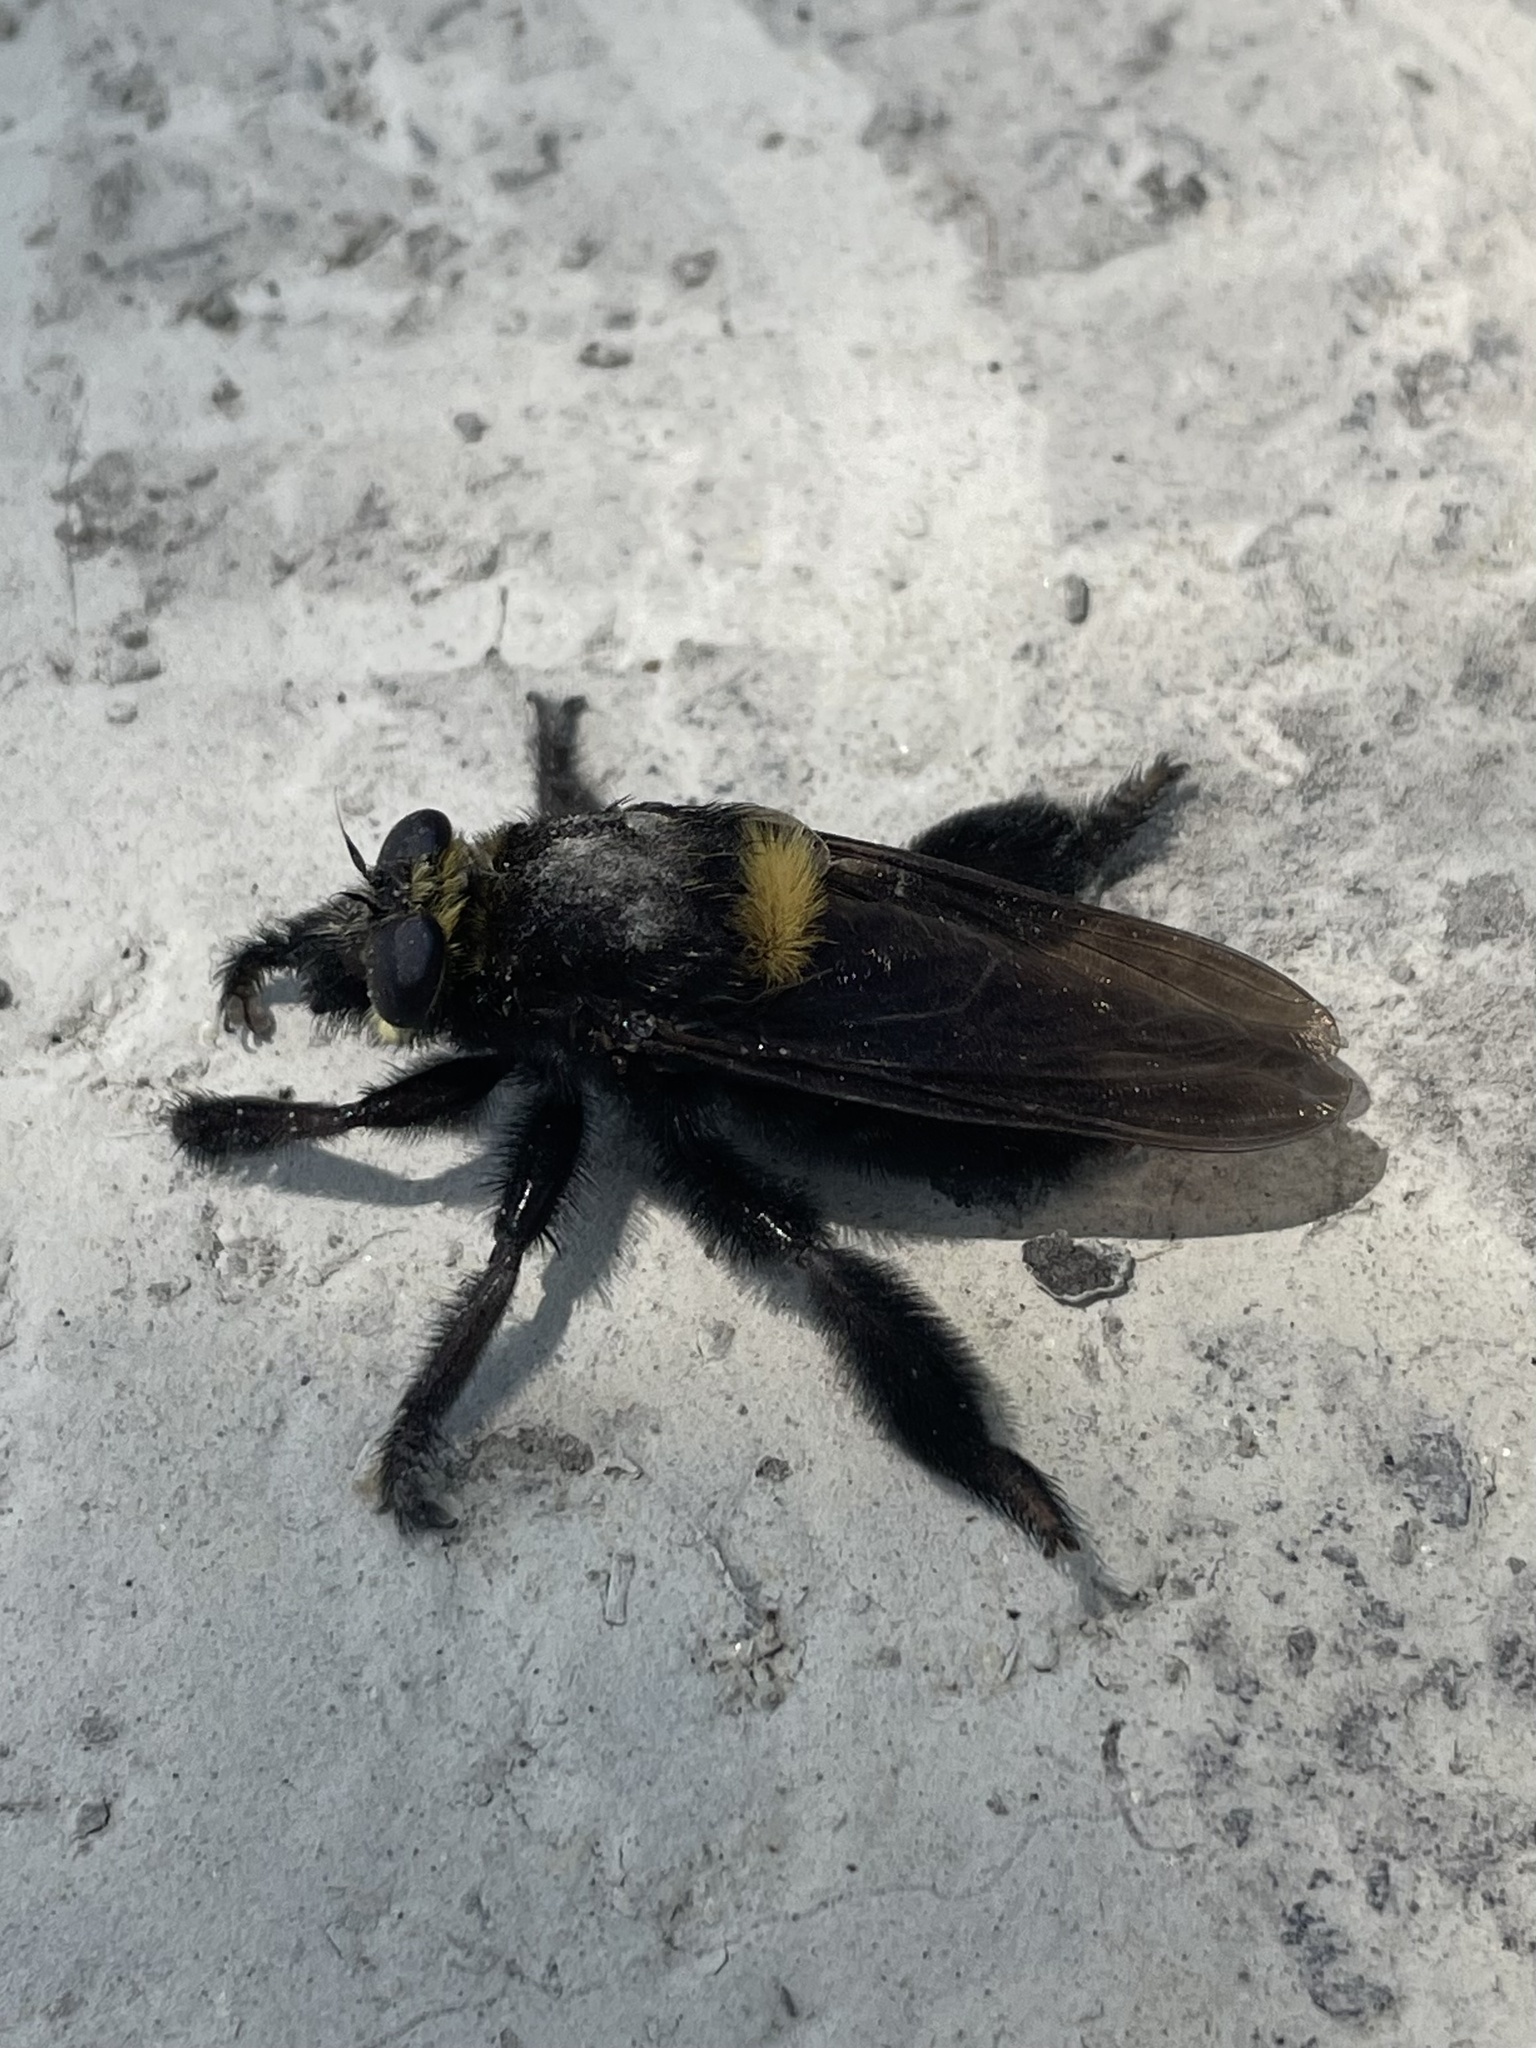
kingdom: Animalia
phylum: Arthropoda
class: Insecta
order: Diptera
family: Asilidae
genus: Mallophora
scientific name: Mallophora leschenaultii
